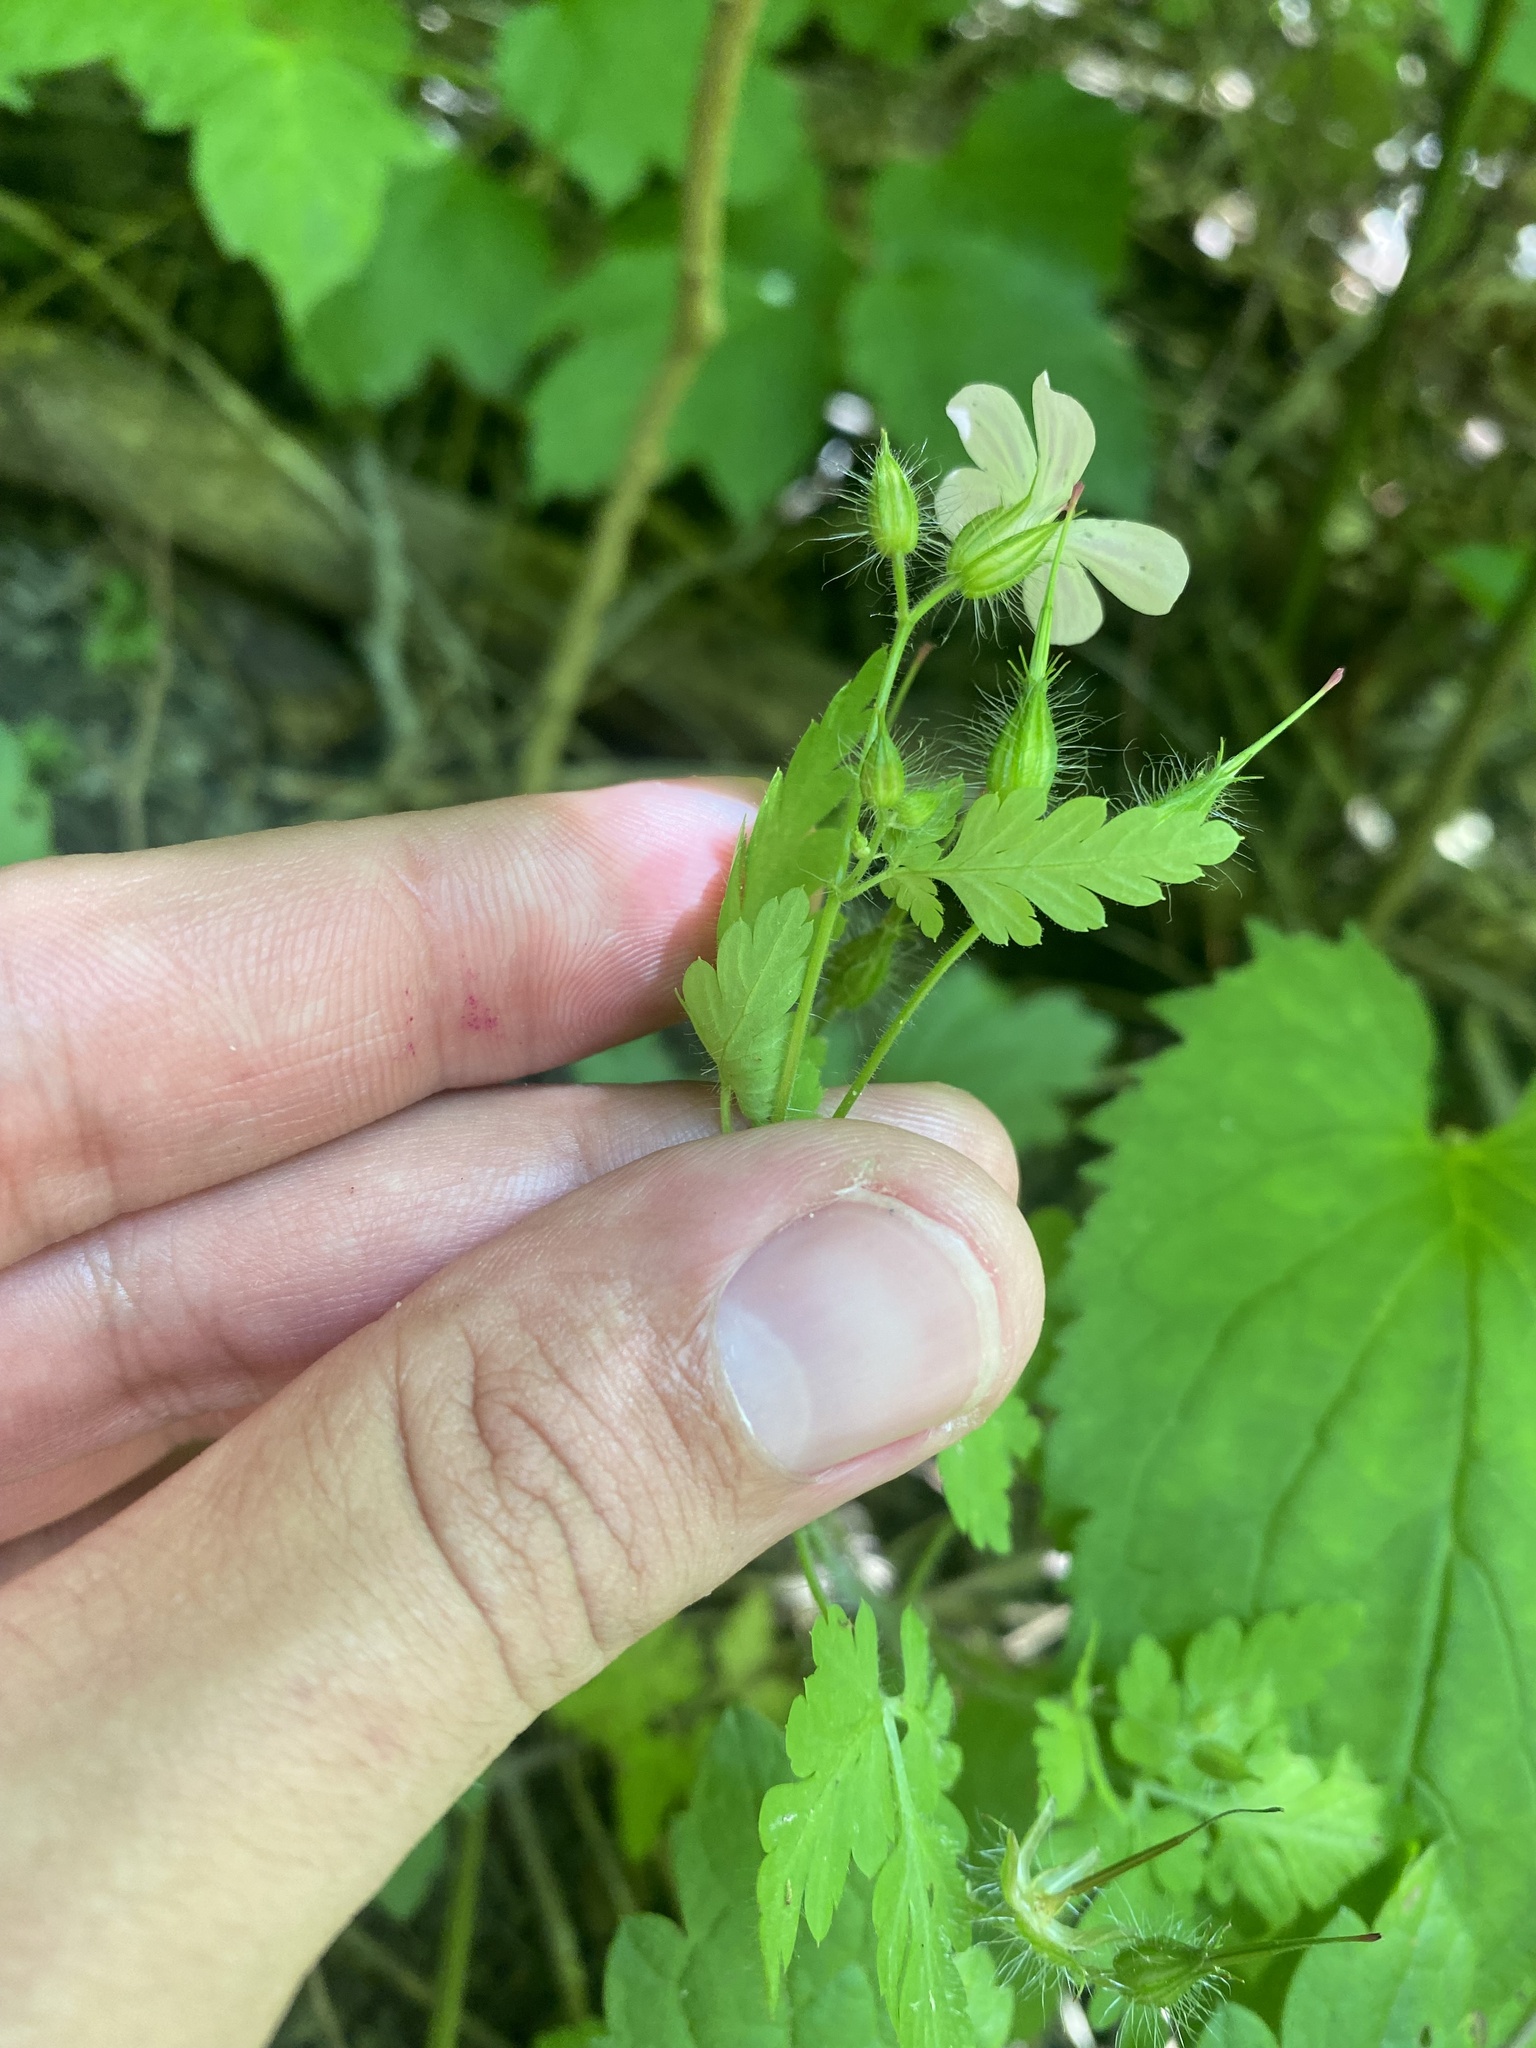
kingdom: Plantae
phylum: Tracheophyta
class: Magnoliopsida
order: Geraniales
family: Geraniaceae
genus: Geranium
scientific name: Geranium robertianum
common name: Herb-robert
